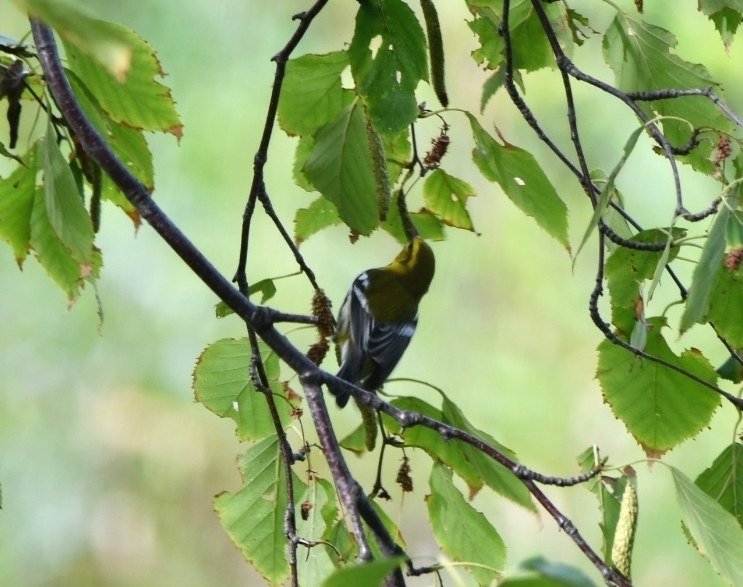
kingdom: Animalia
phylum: Chordata
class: Aves
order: Passeriformes
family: Parulidae
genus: Setophaga
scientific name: Setophaga virens
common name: Black-throated green warbler
